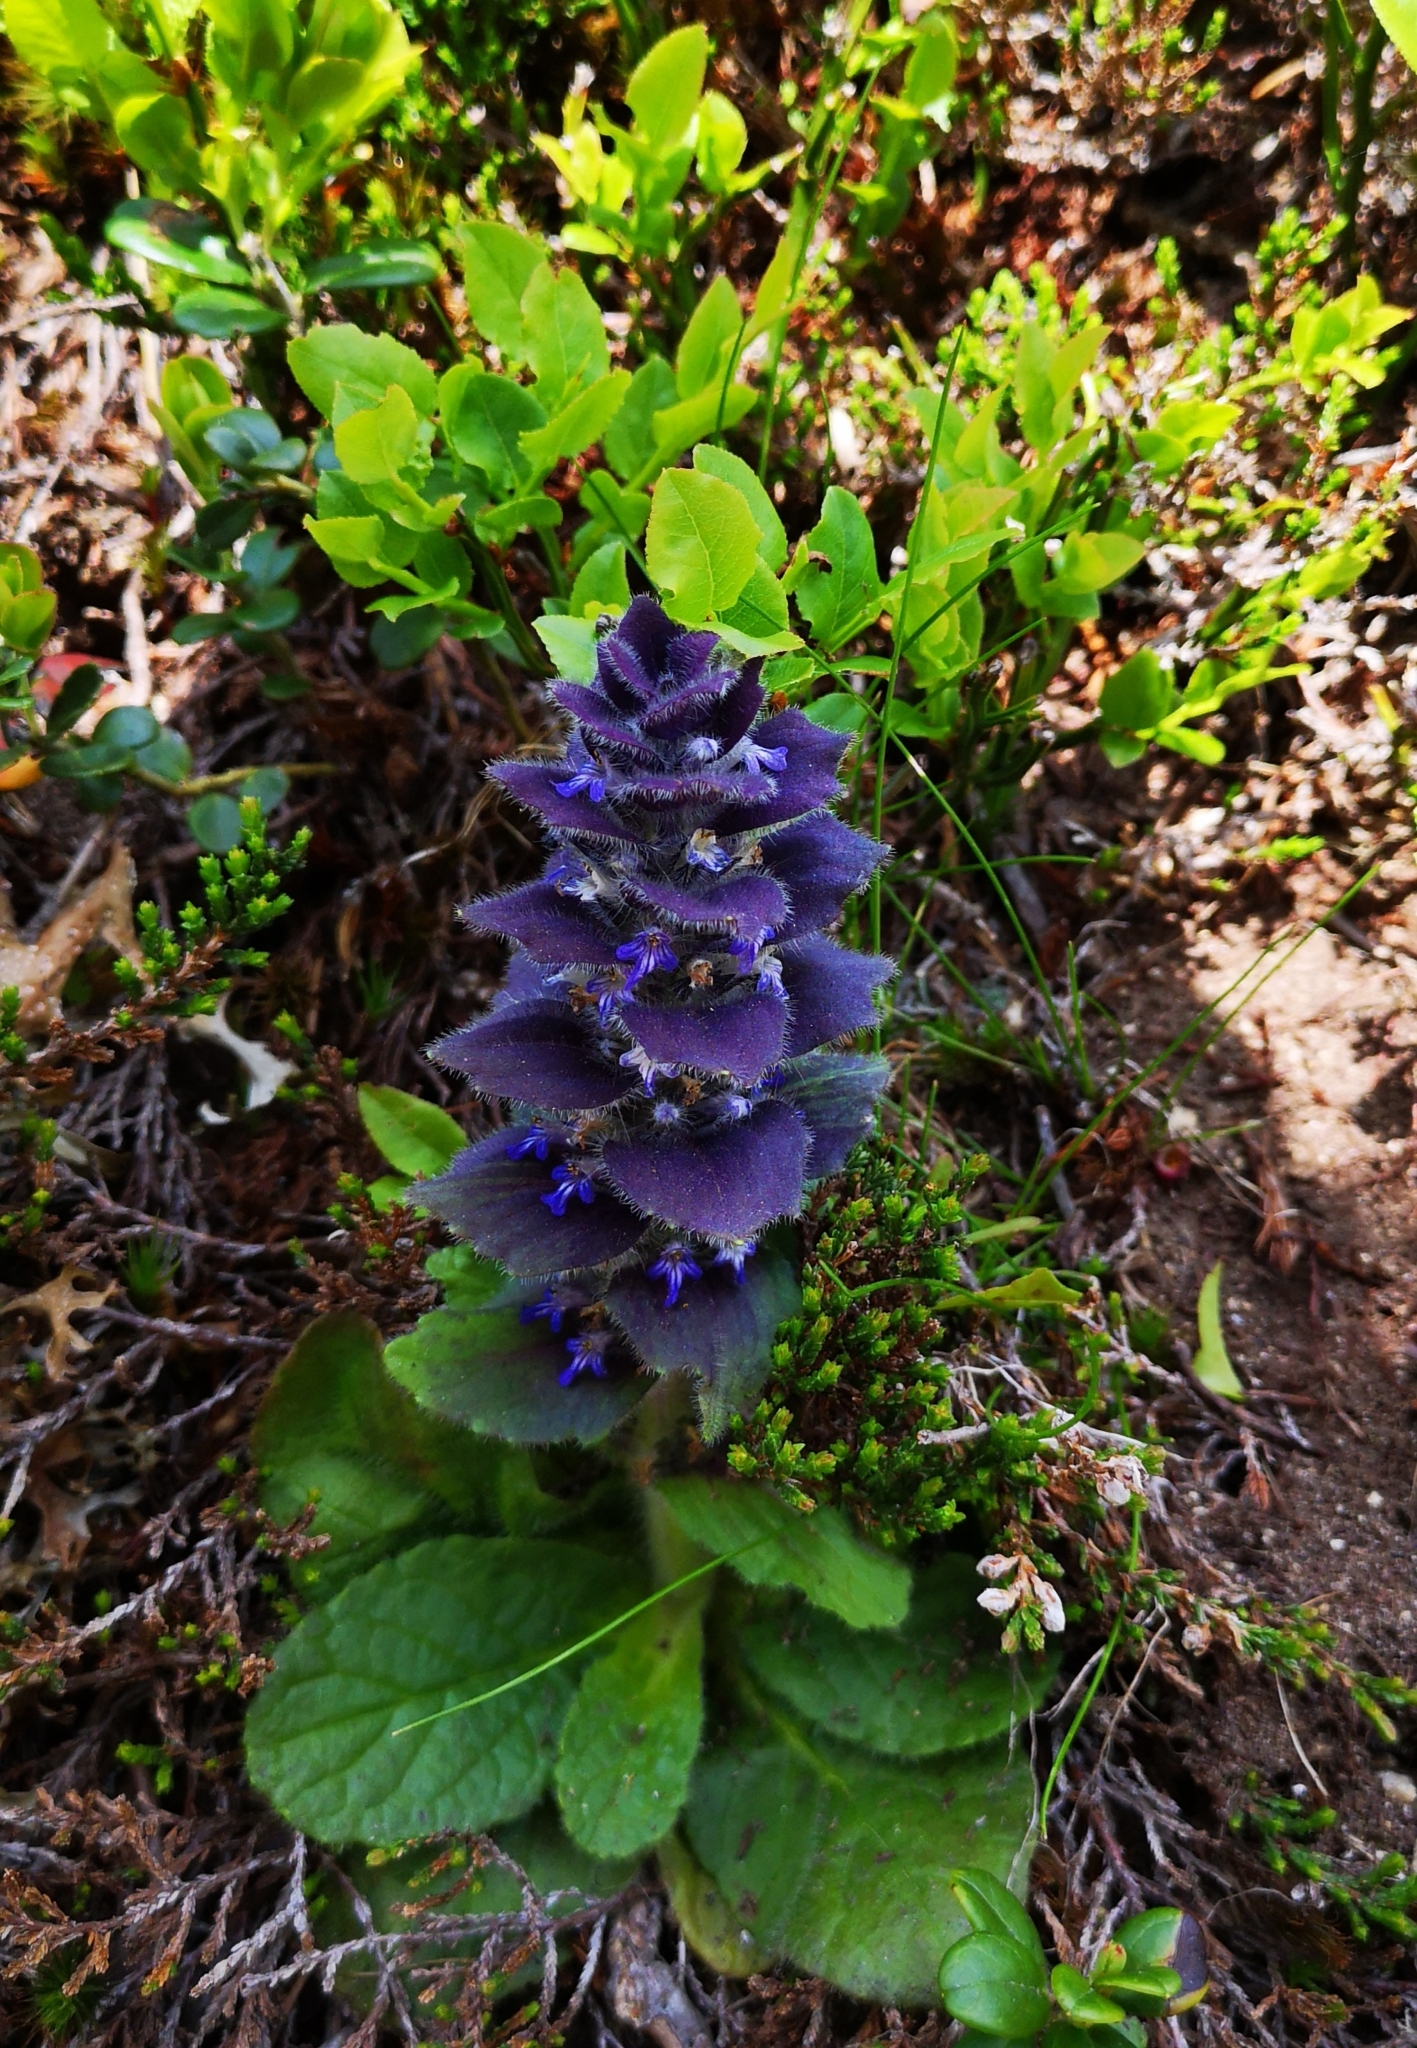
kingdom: Plantae
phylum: Tracheophyta
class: Magnoliopsida
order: Lamiales
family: Lamiaceae
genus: Ajuga
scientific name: Ajuga pyramidalis
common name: Pyramid bugle
